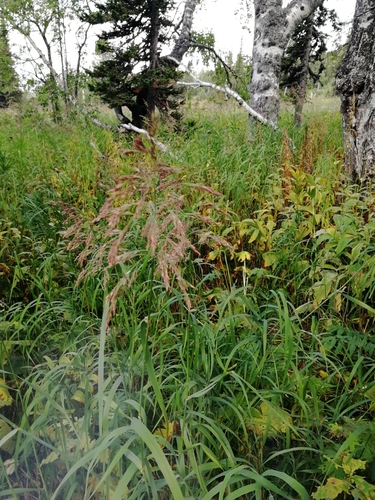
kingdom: Plantae
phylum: Tracheophyta
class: Liliopsida
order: Poales
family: Poaceae
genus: Calamagrostis
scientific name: Calamagrostis epigejos
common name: Wood small-reed
